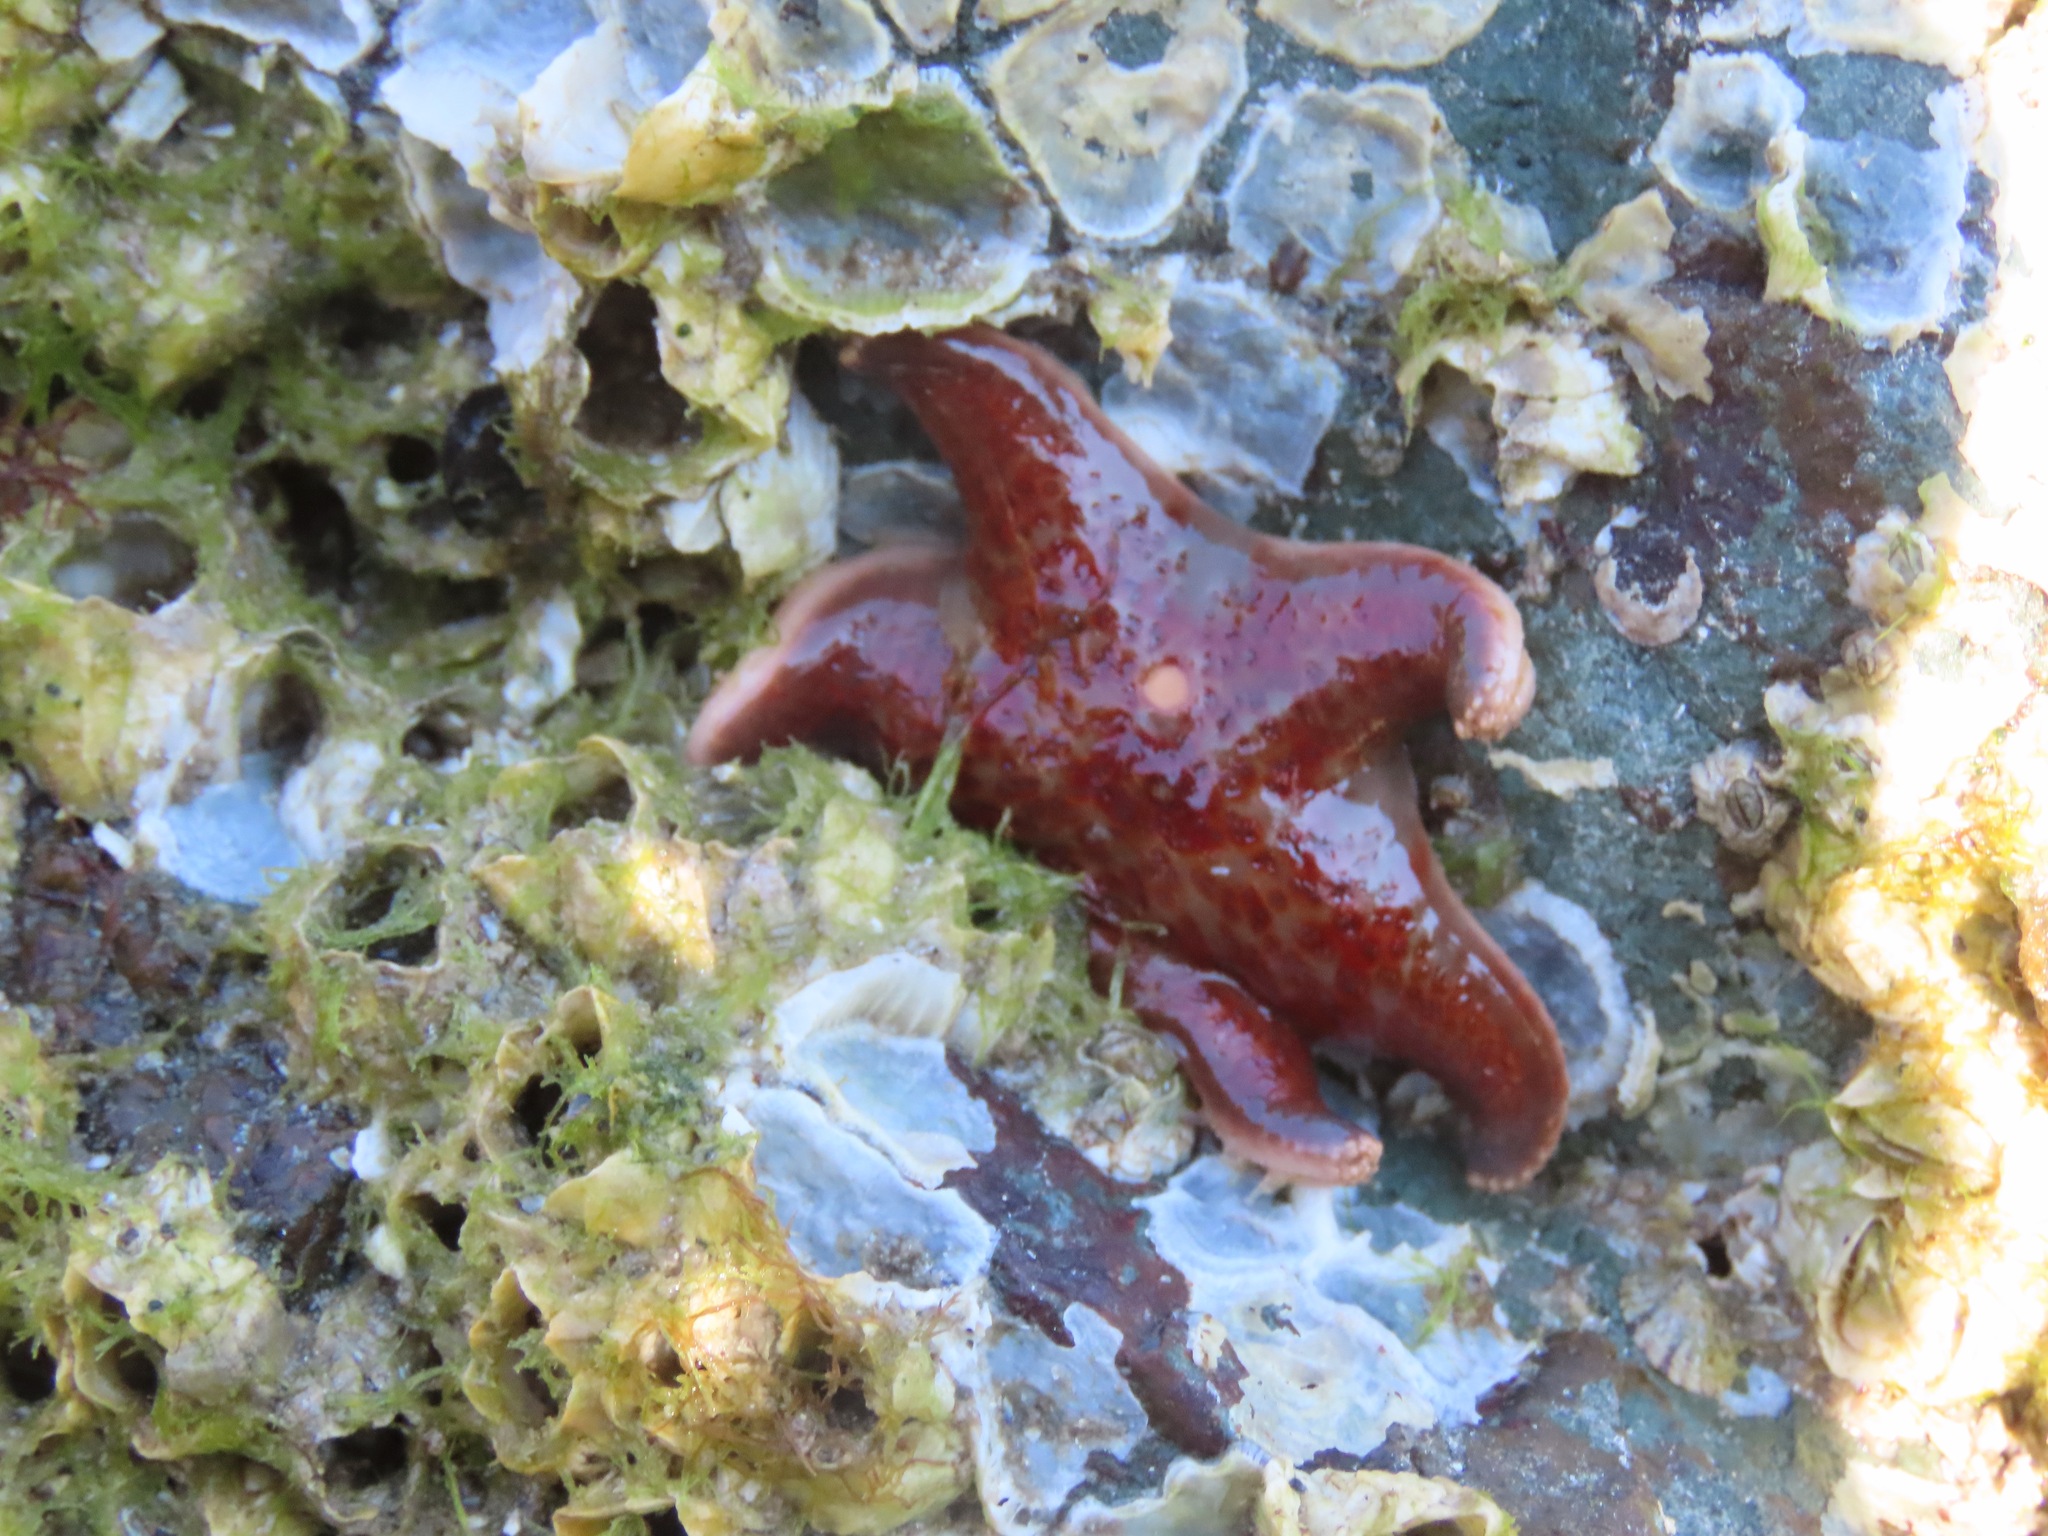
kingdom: Animalia
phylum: Echinodermata
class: Asteroidea
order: Valvatida
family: Asteropseidae
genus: Dermasterias
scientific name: Dermasterias imbricata
